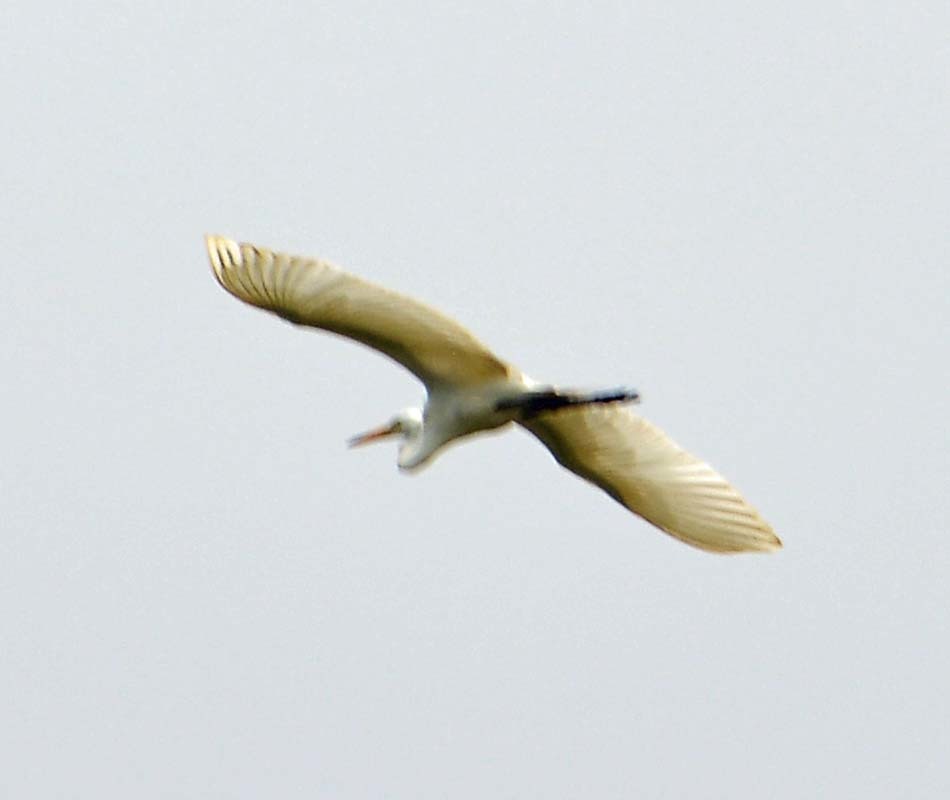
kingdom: Animalia
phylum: Chordata
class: Aves
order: Pelecaniformes
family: Ardeidae
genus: Ardea
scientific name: Ardea alba
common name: Great egret
